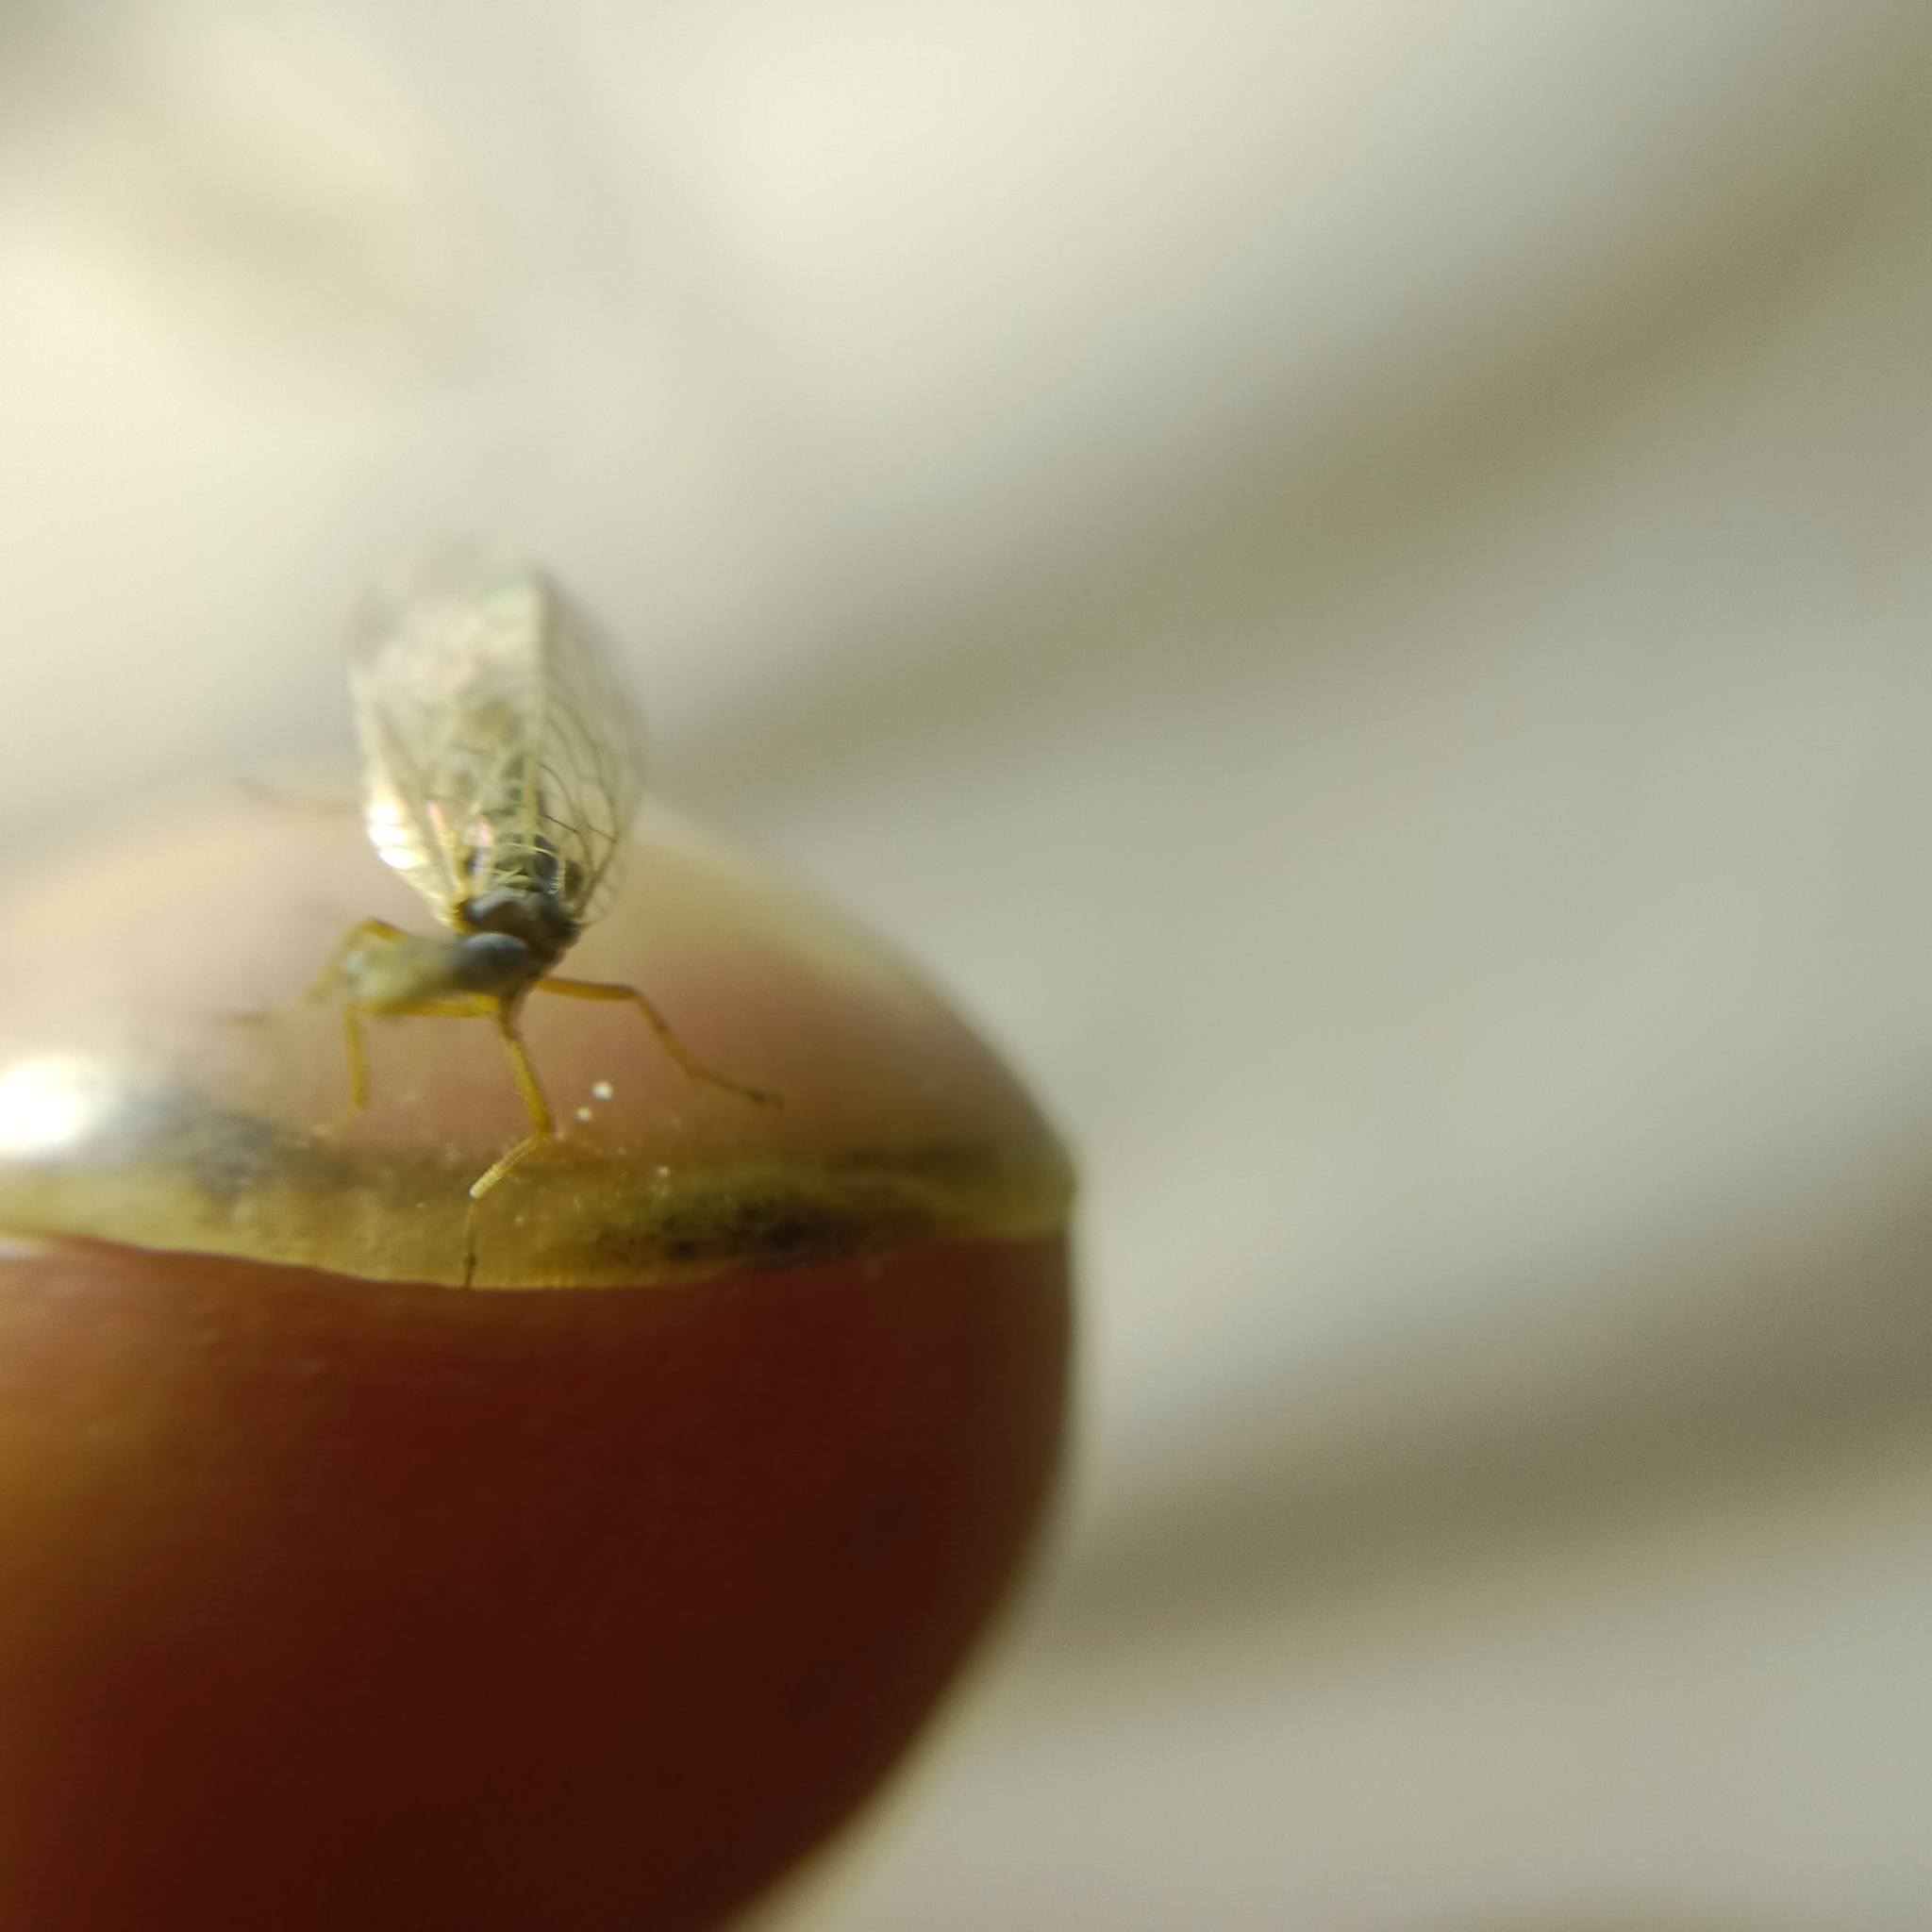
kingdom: Animalia
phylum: Arthropoda
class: Insecta
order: Raphidioptera
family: Raphidiidae
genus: Xanthostigma
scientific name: Xanthostigma xanthostigma
